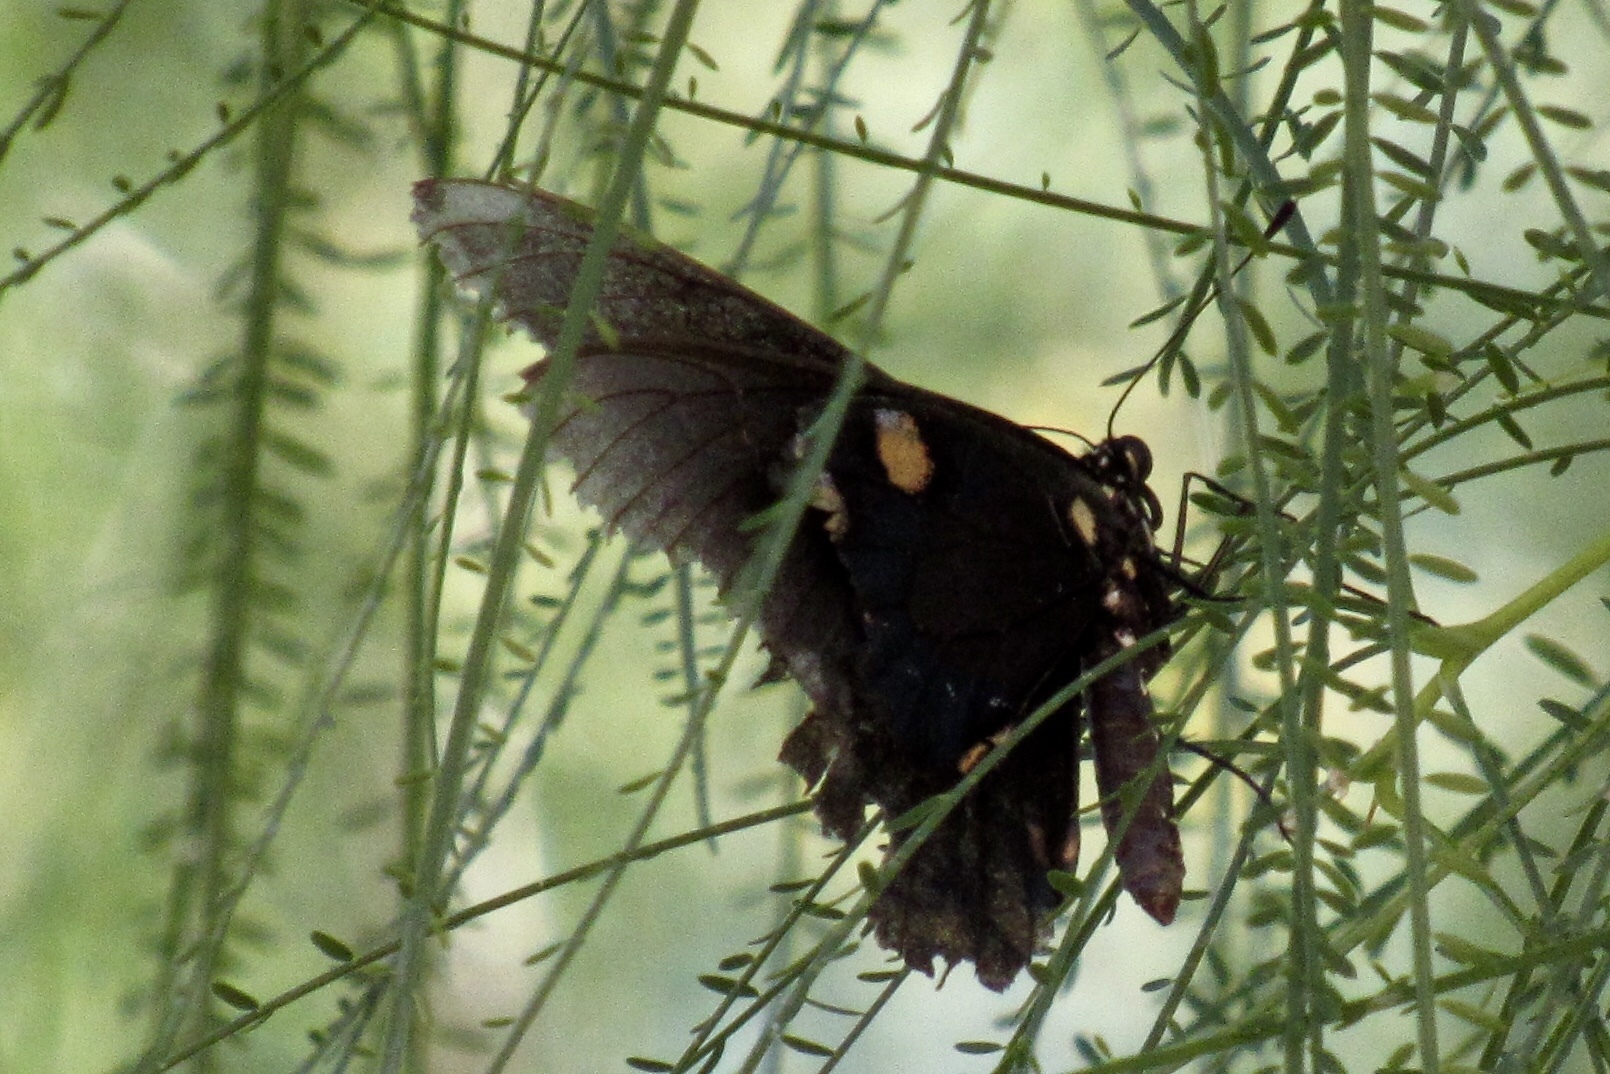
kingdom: Animalia
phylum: Arthropoda
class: Insecta
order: Lepidoptera
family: Papilionidae
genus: Battus
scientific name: Battus philenor
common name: Pipevine swallowtail
